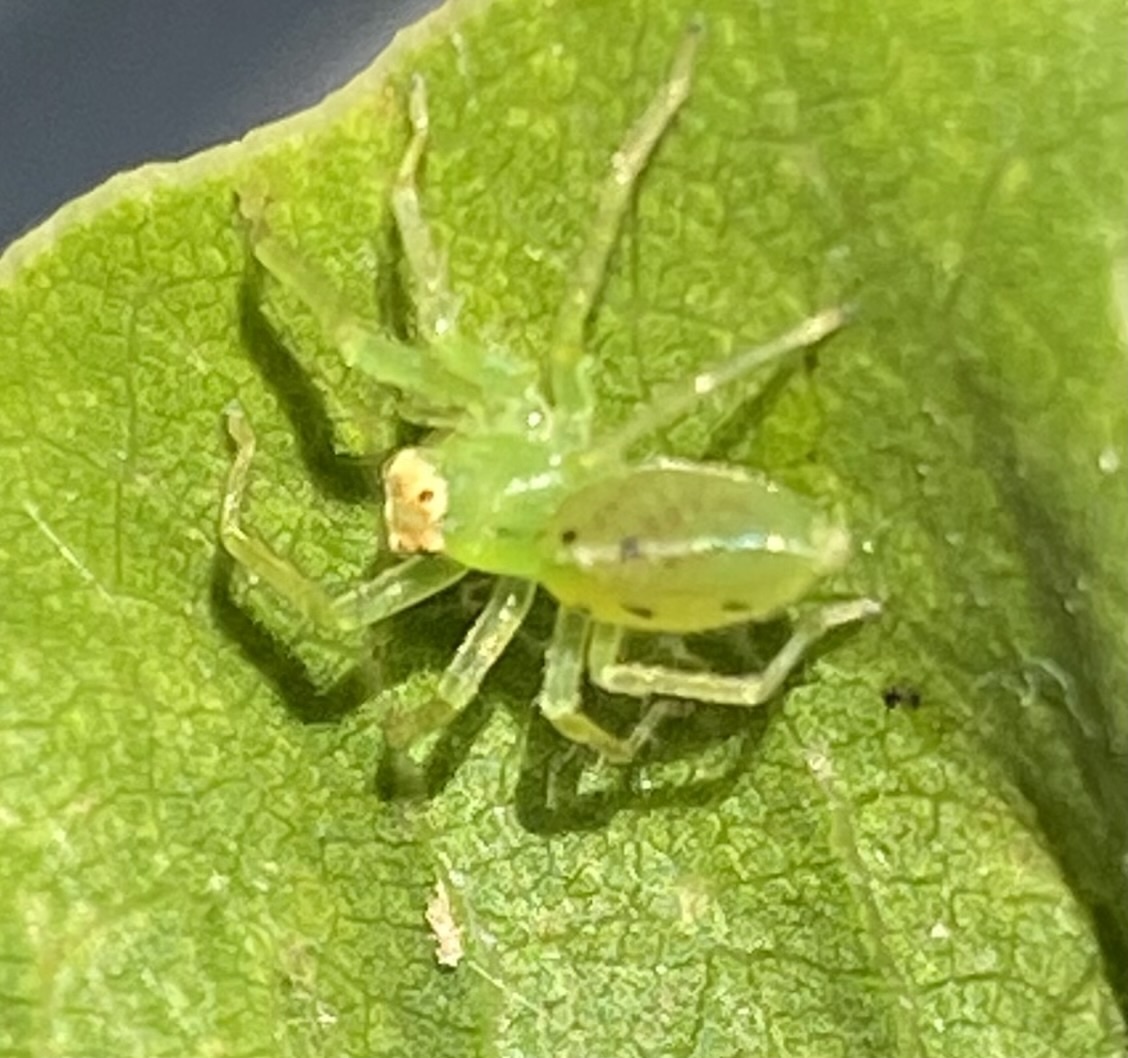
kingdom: Animalia
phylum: Arthropoda
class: Arachnida
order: Araneae
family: Salticidae
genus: Lyssomanes
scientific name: Lyssomanes viridis
